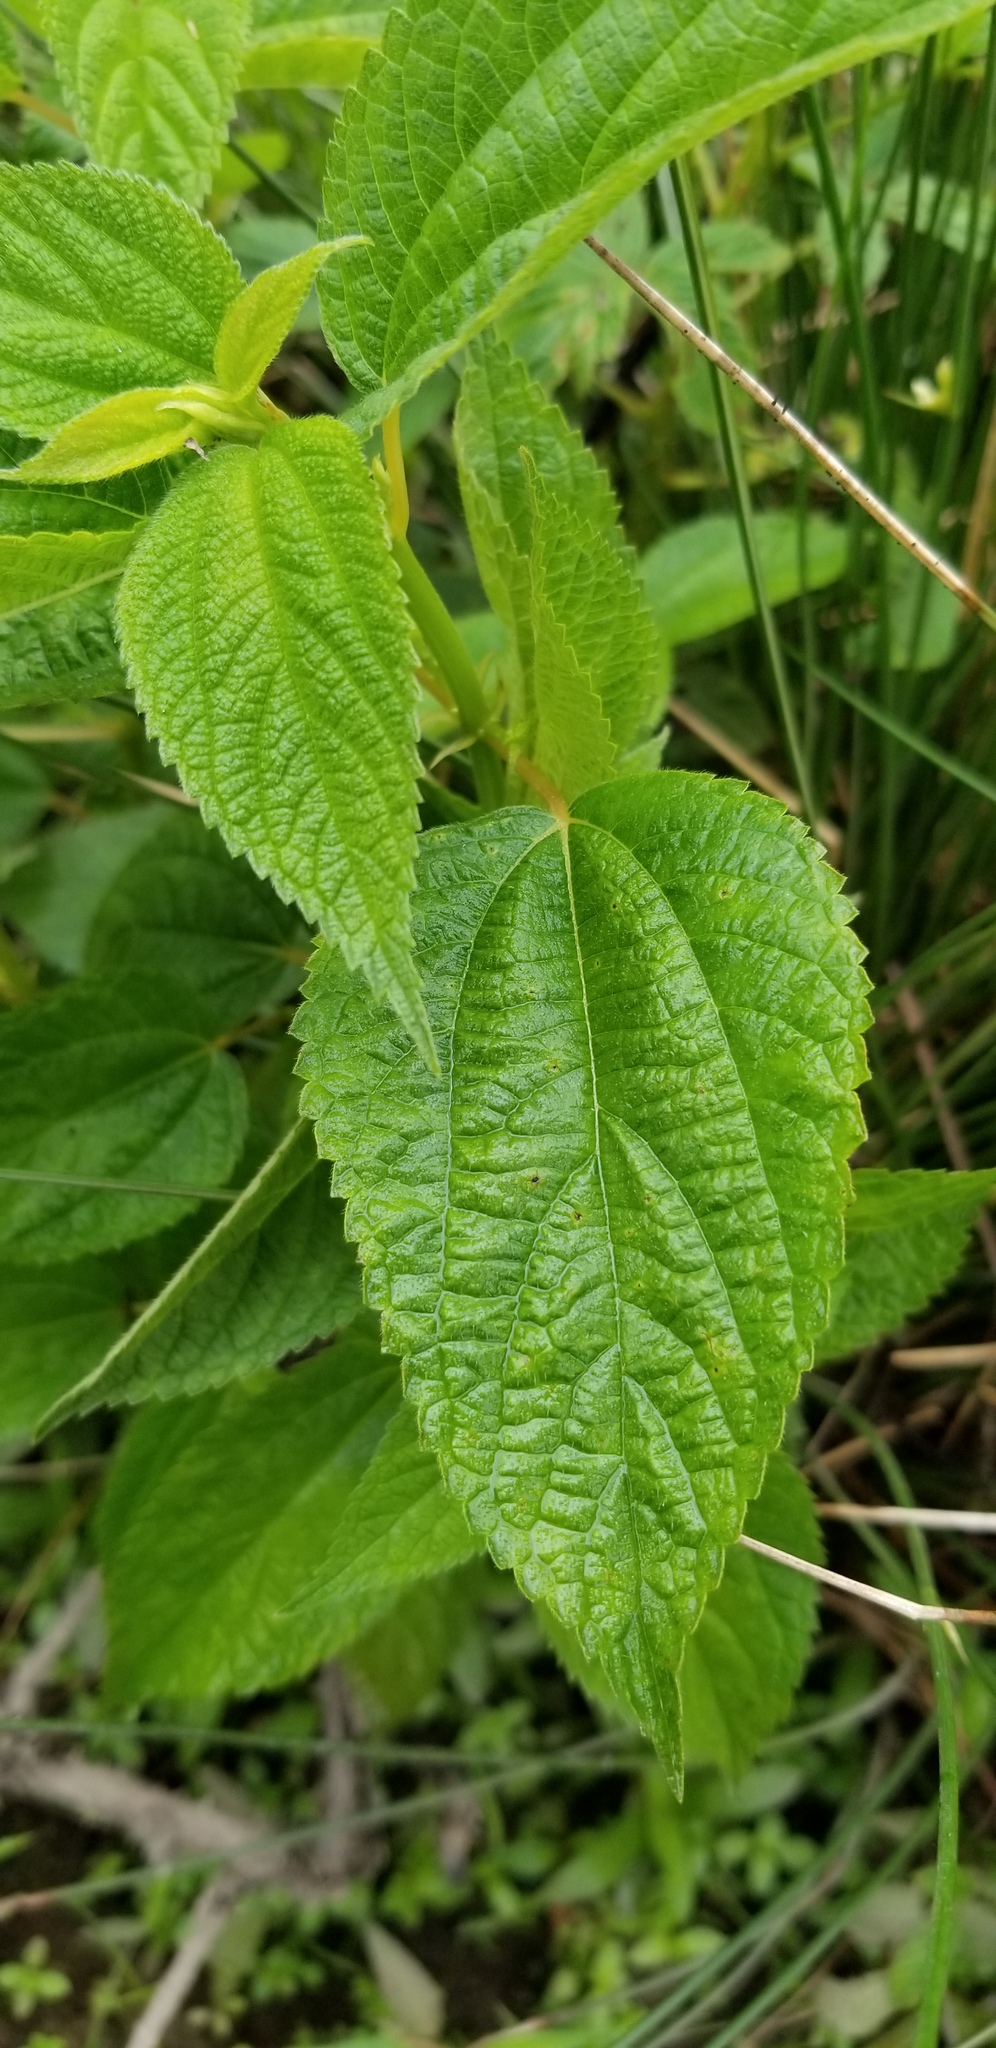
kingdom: Plantae
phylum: Tracheophyta
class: Magnoliopsida
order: Rosales
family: Urticaceae
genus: Boehmeria
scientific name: Boehmeria cylindrica
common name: Bog-hemp
